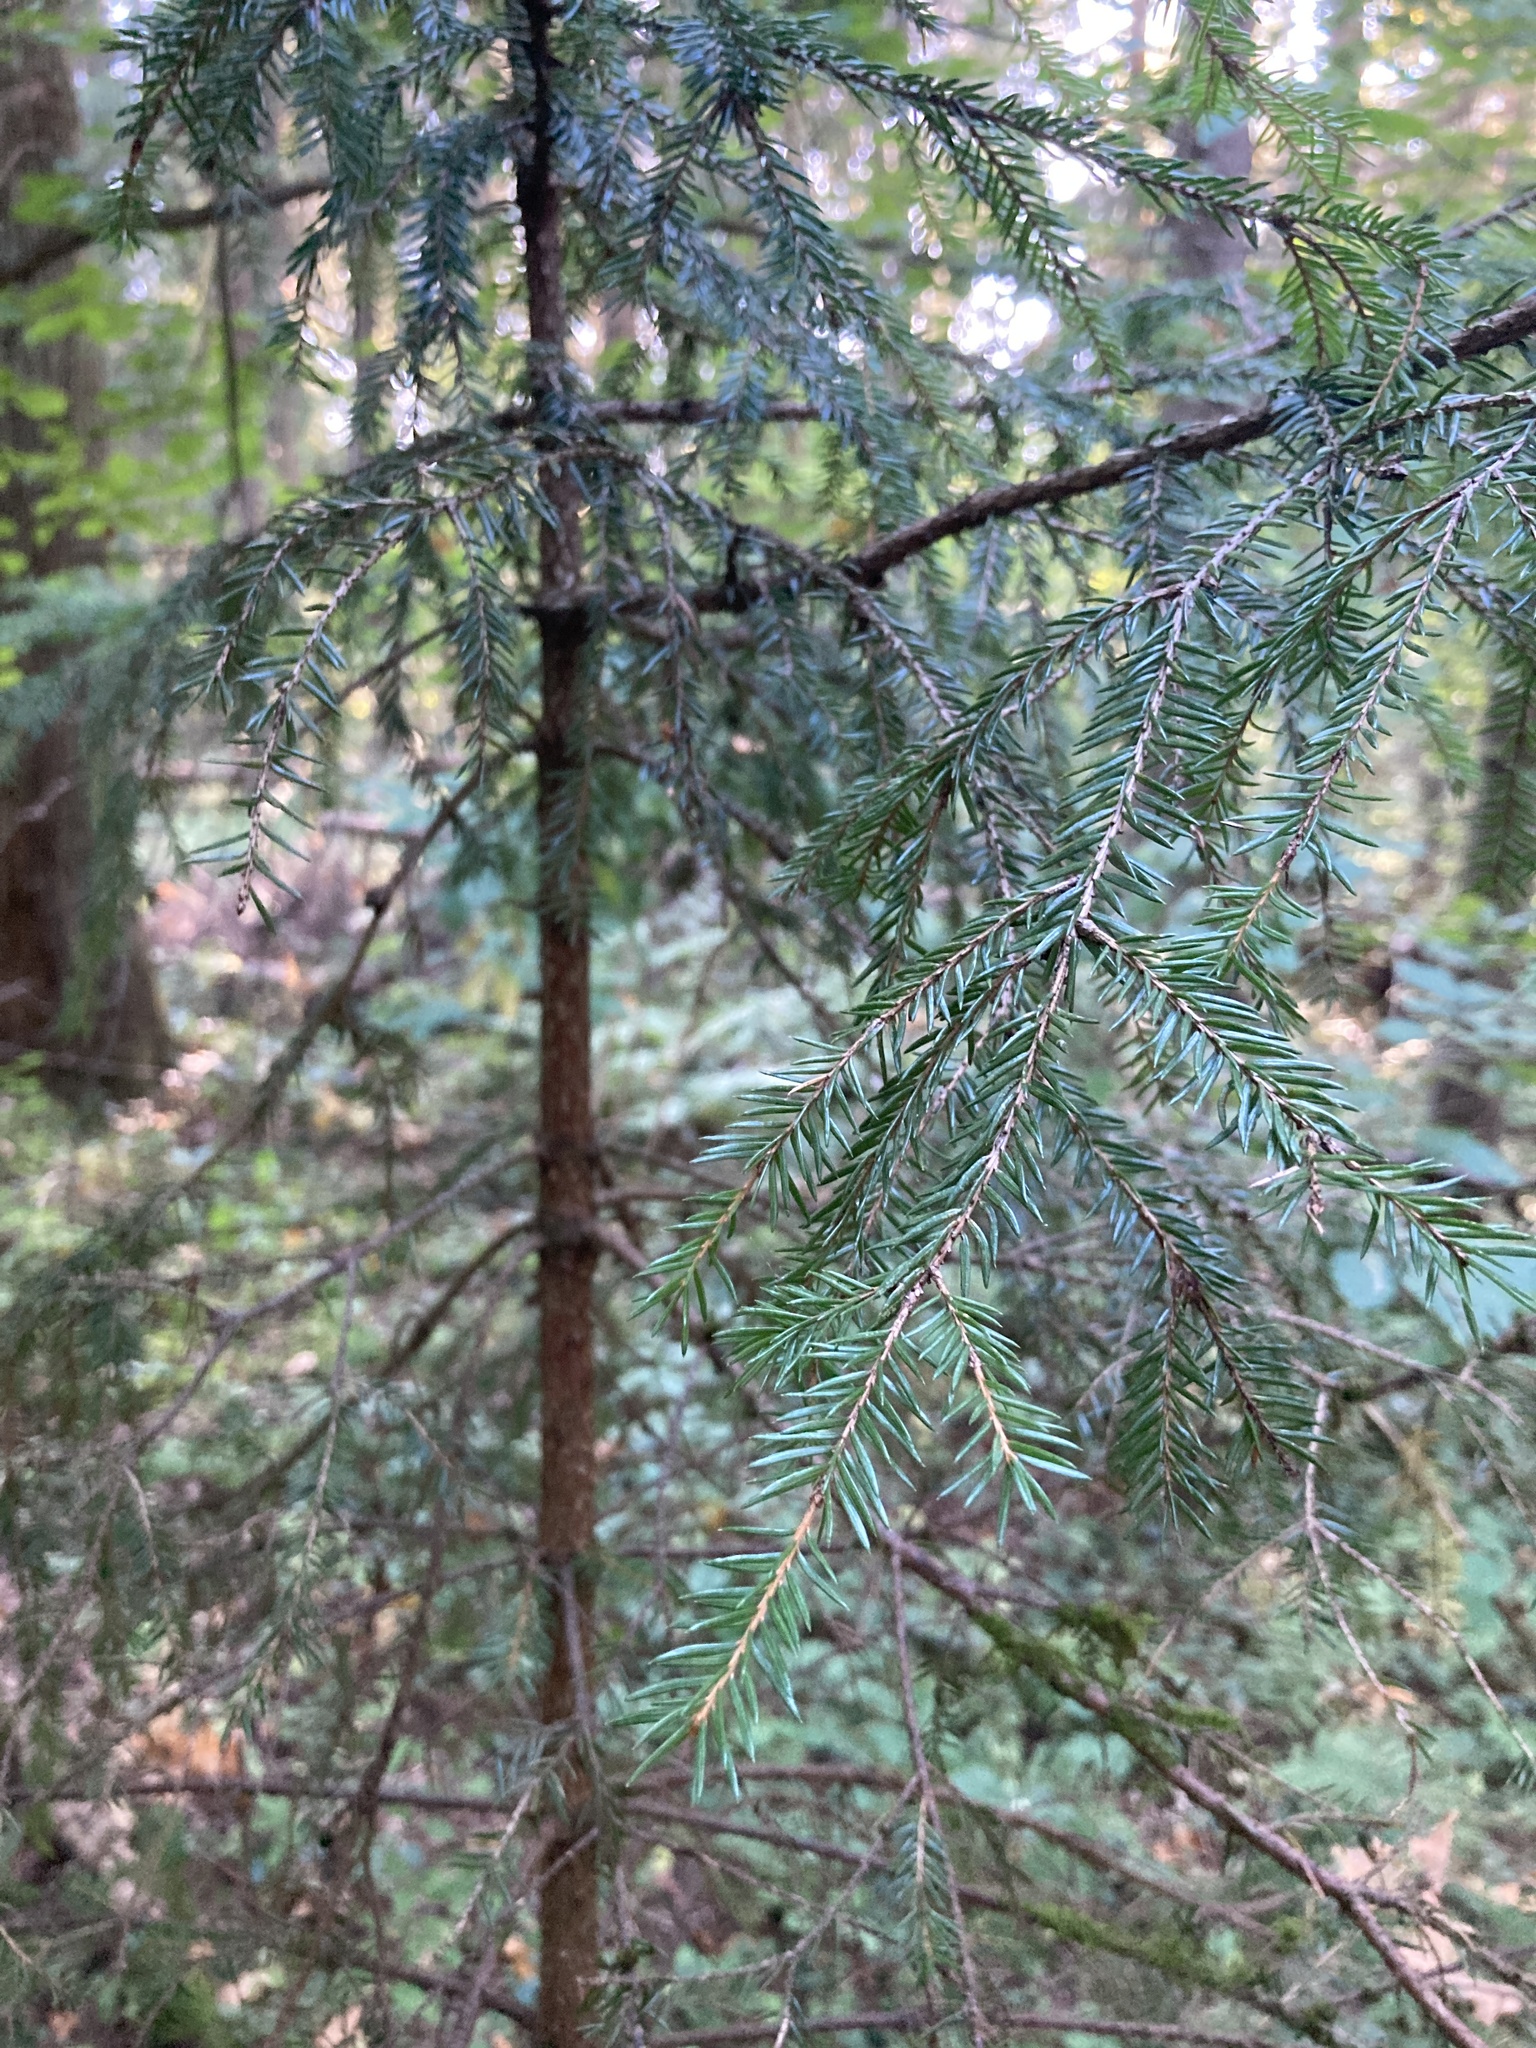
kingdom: Plantae
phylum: Tracheophyta
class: Pinopsida
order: Pinales
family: Pinaceae
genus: Picea
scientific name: Picea abies
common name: Norway spruce
